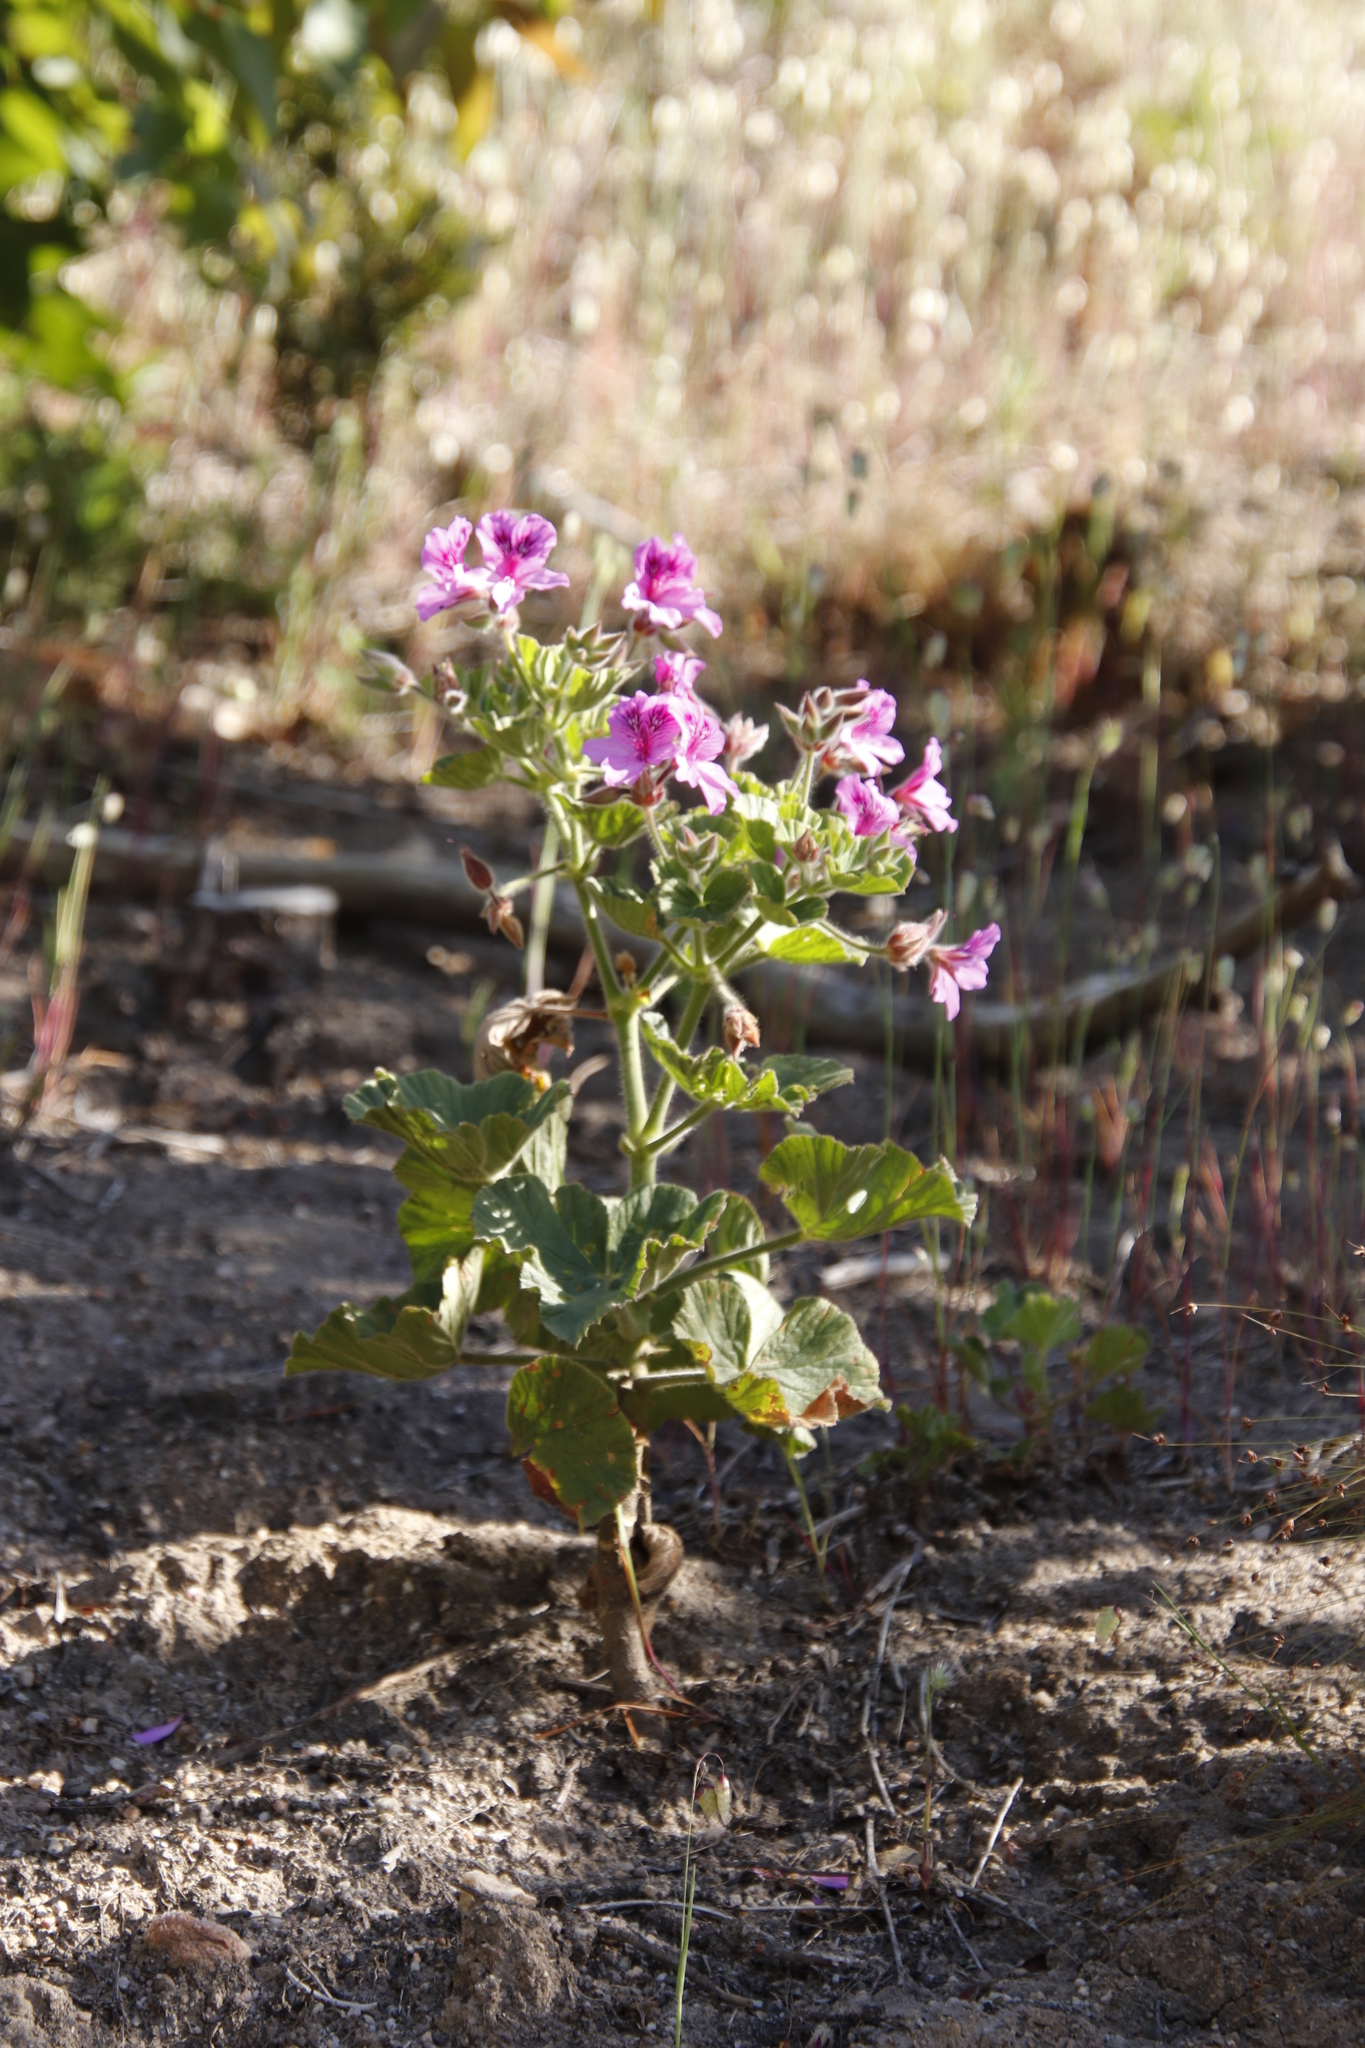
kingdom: Plantae
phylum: Tracheophyta
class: Magnoliopsida
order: Geraniales
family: Geraniaceae
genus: Pelargonium
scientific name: Pelargonium cucullatum
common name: Tree pelargonium
